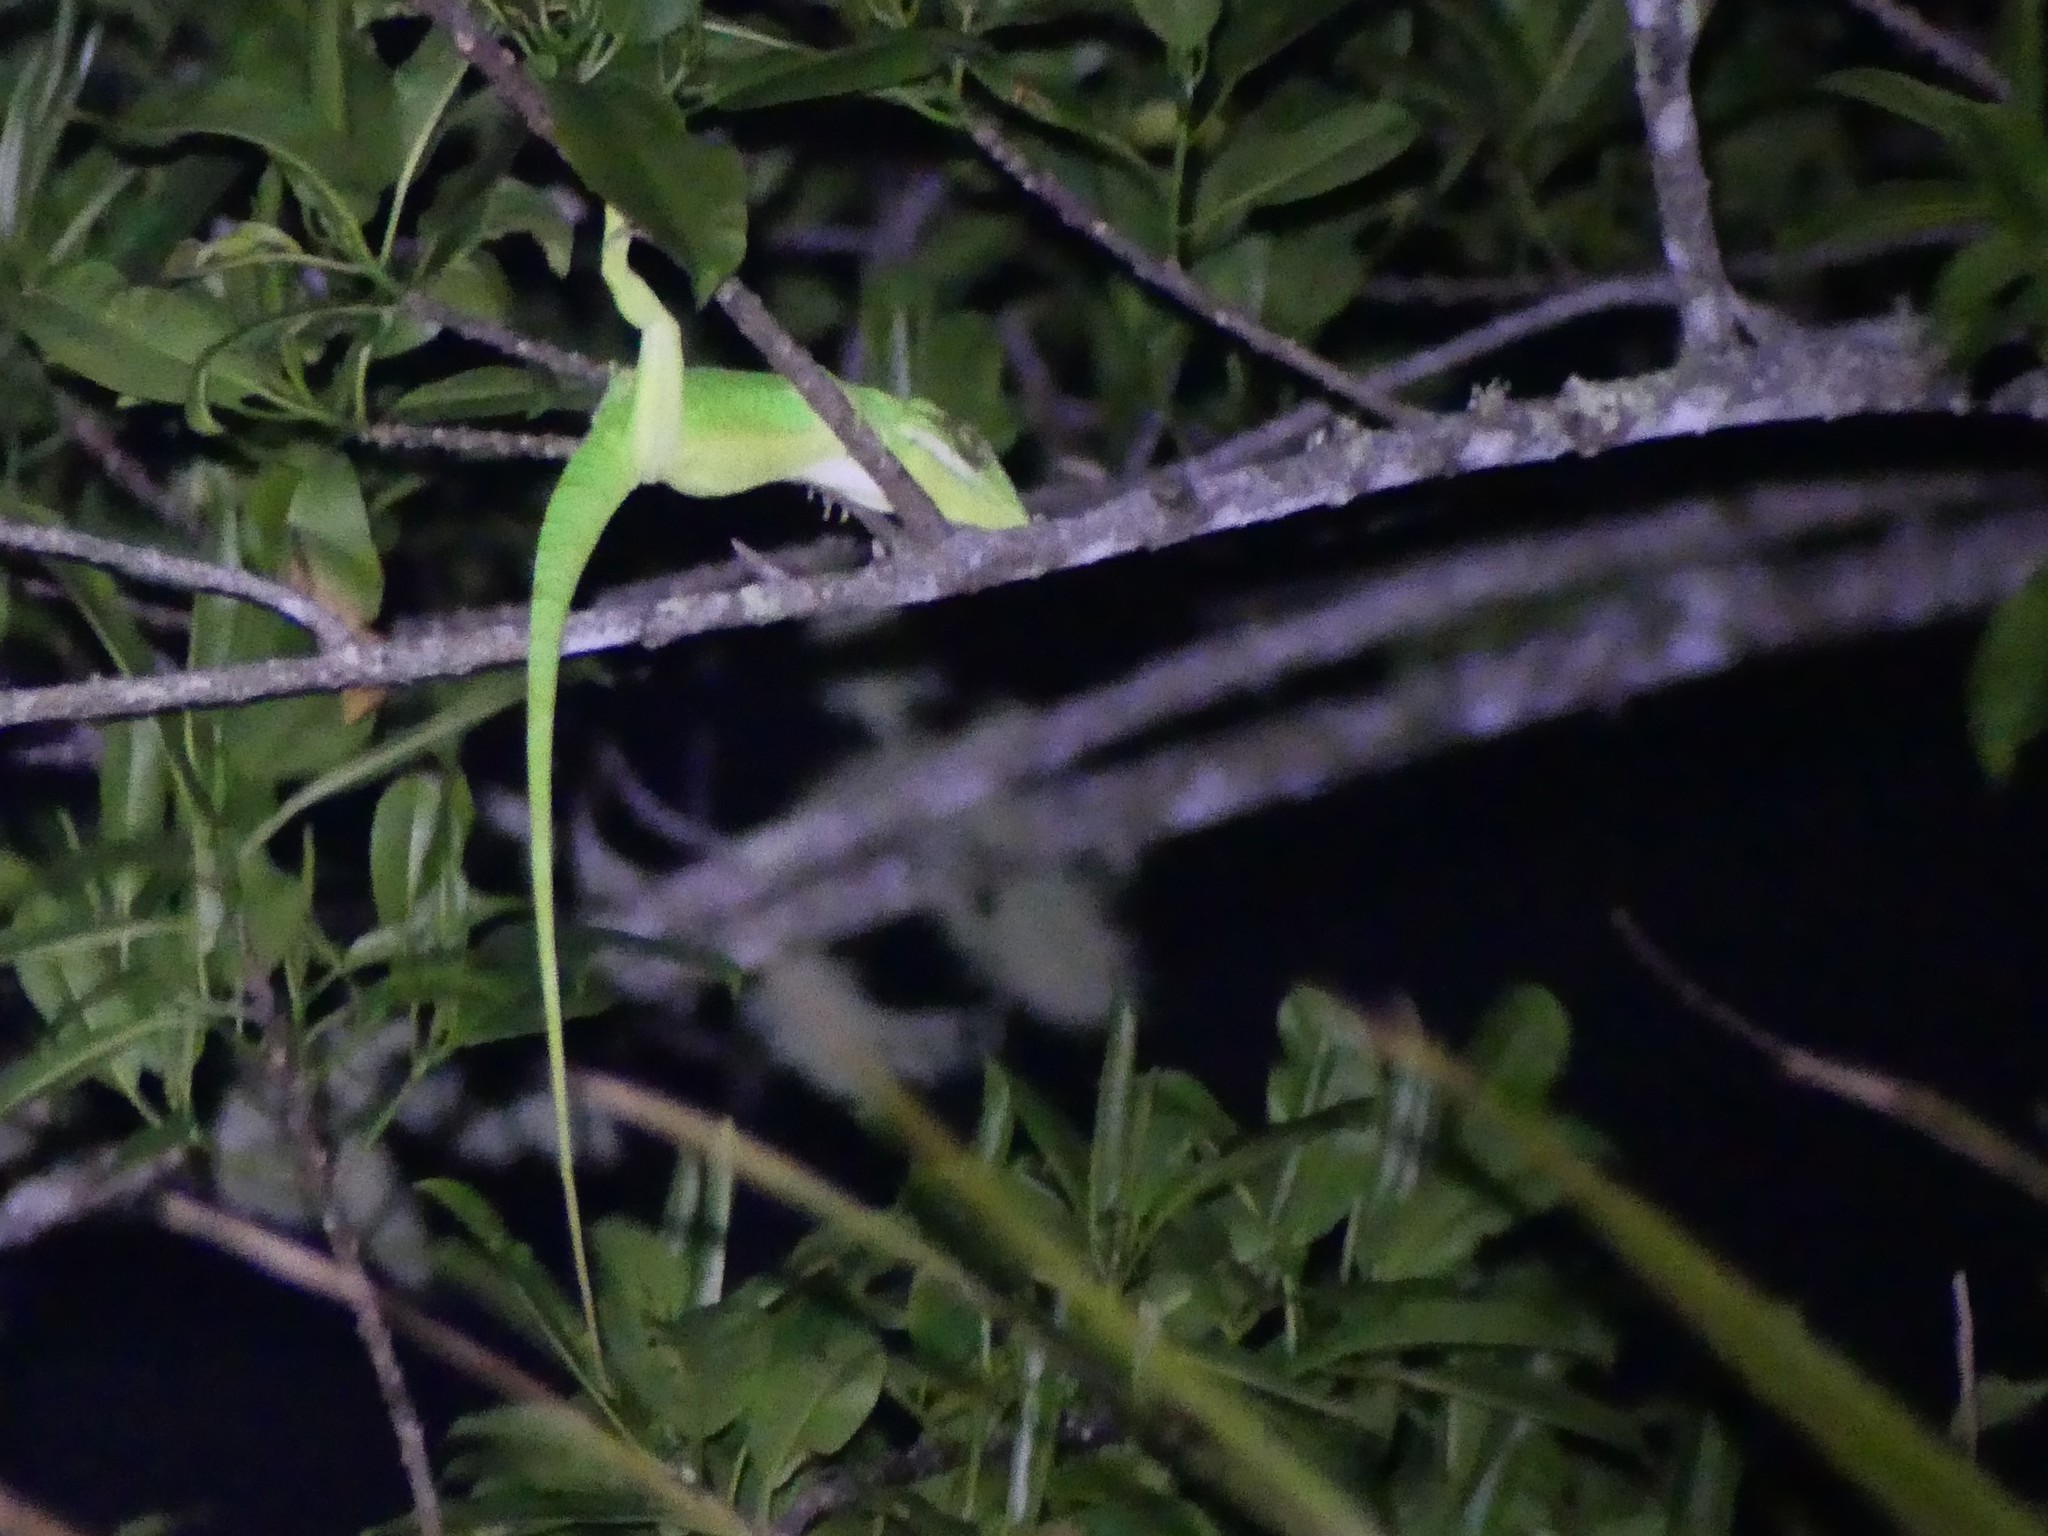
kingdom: Animalia
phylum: Chordata
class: Squamata
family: Dactyloidae
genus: Anolis
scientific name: Anolis noblei
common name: Holguin anole
